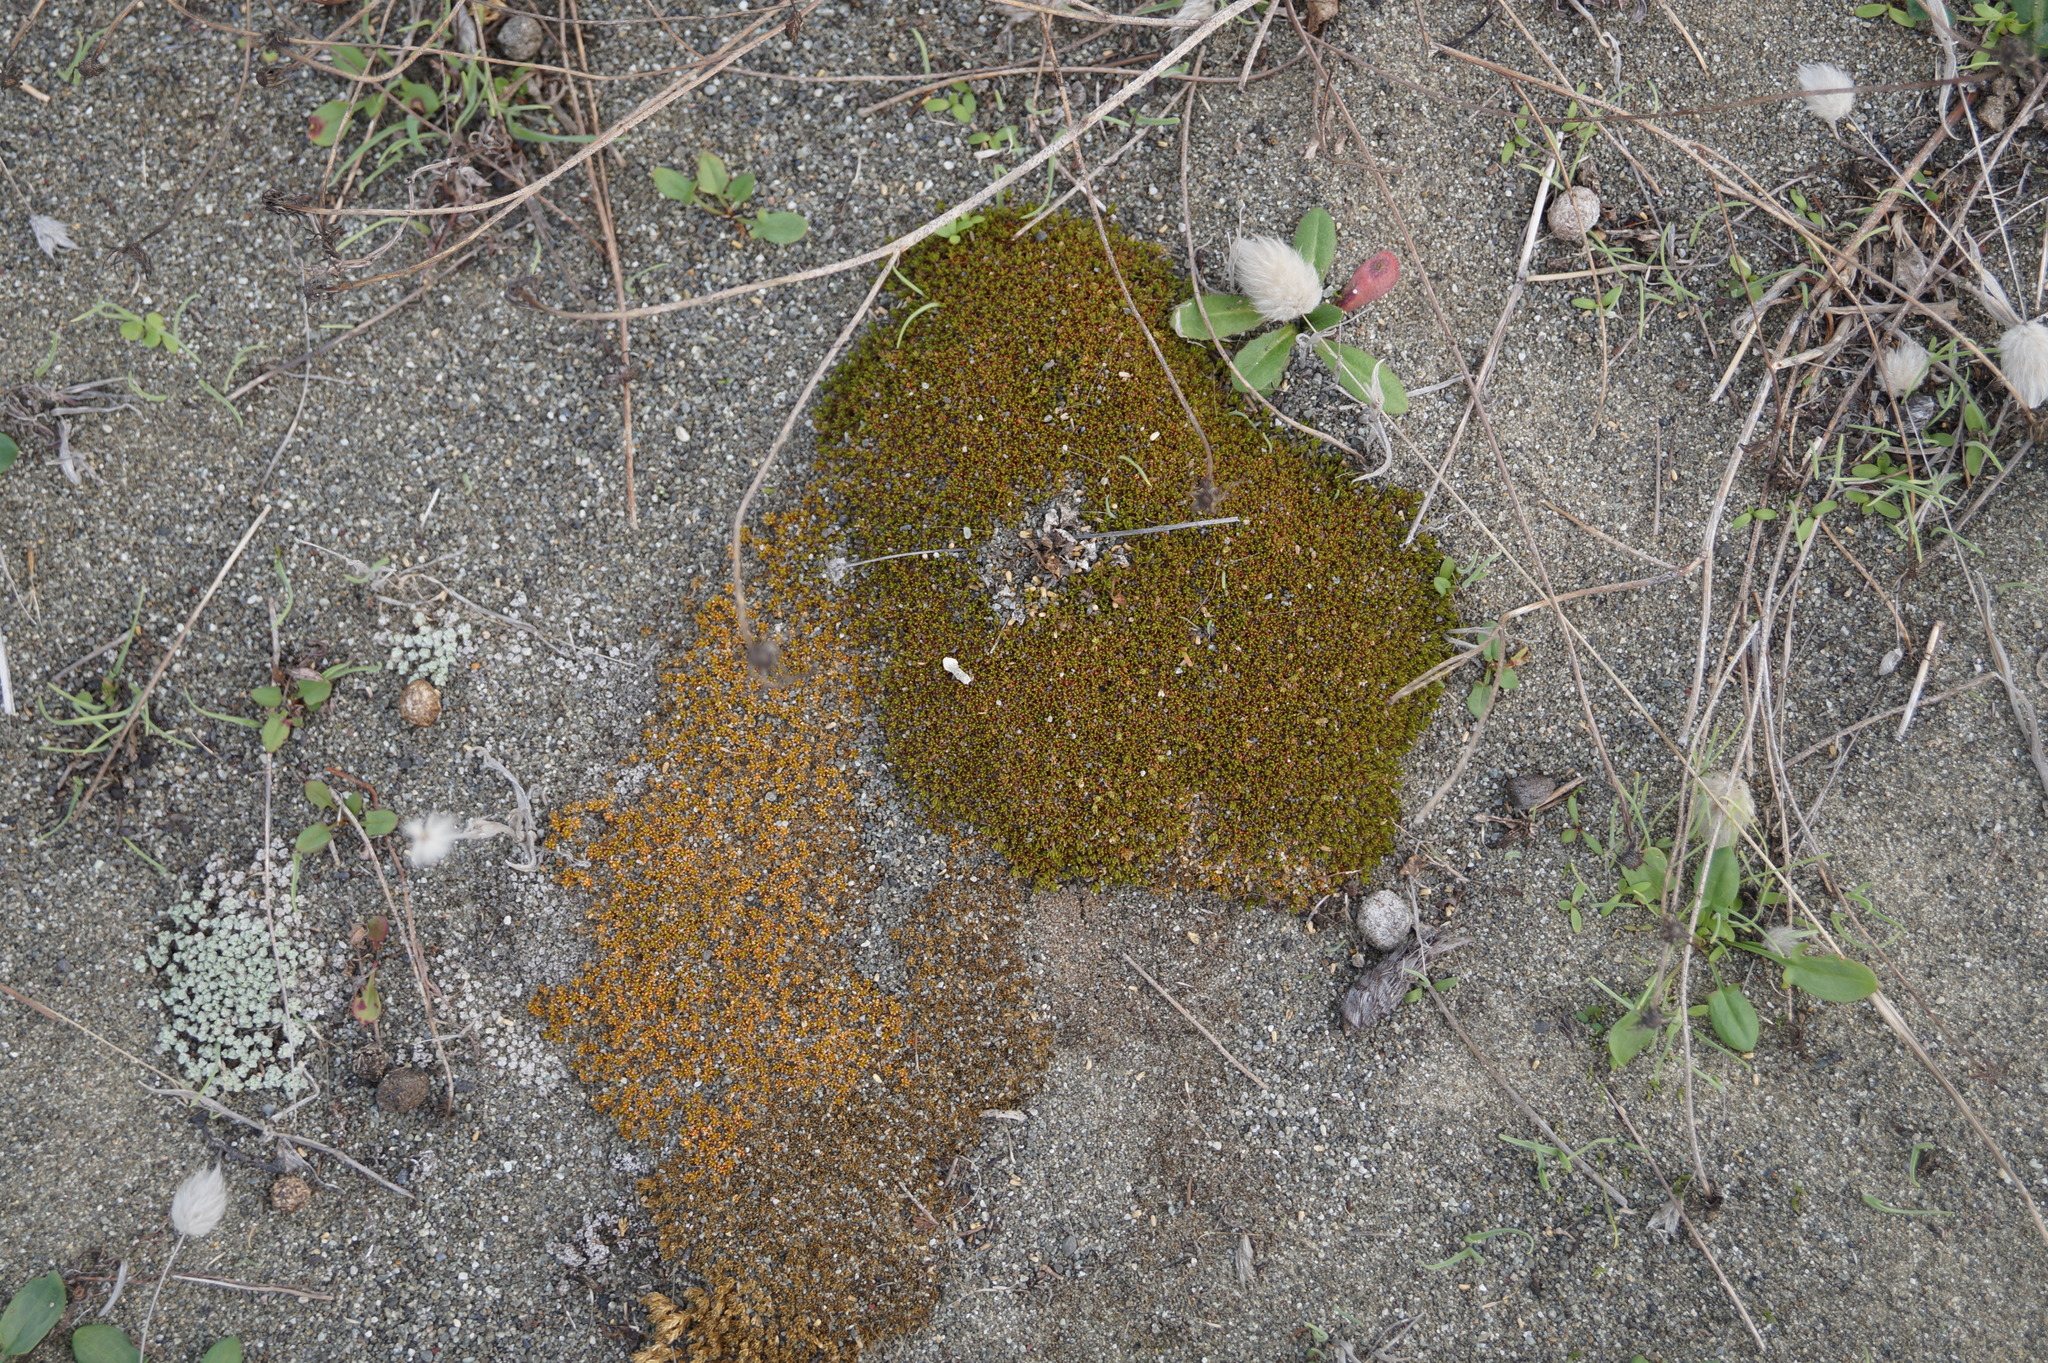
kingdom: Plantae
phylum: Tracheophyta
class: Magnoliopsida
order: Caryophyllales
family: Caryophyllaceae
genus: Scleranthus
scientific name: Scleranthus uniflorus
